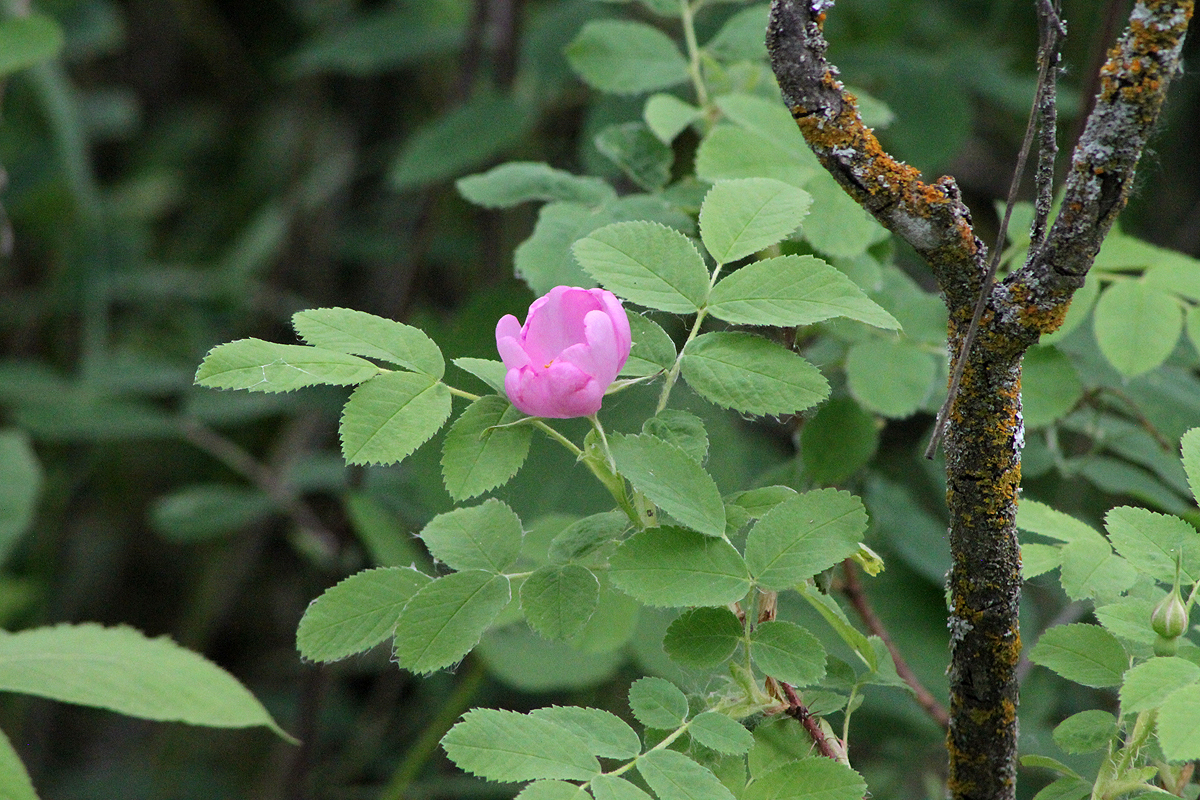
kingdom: Plantae
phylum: Tracheophyta
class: Magnoliopsida
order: Rosales
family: Rosaceae
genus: Rosa
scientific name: Rosa acicularis
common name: Prickly rose
